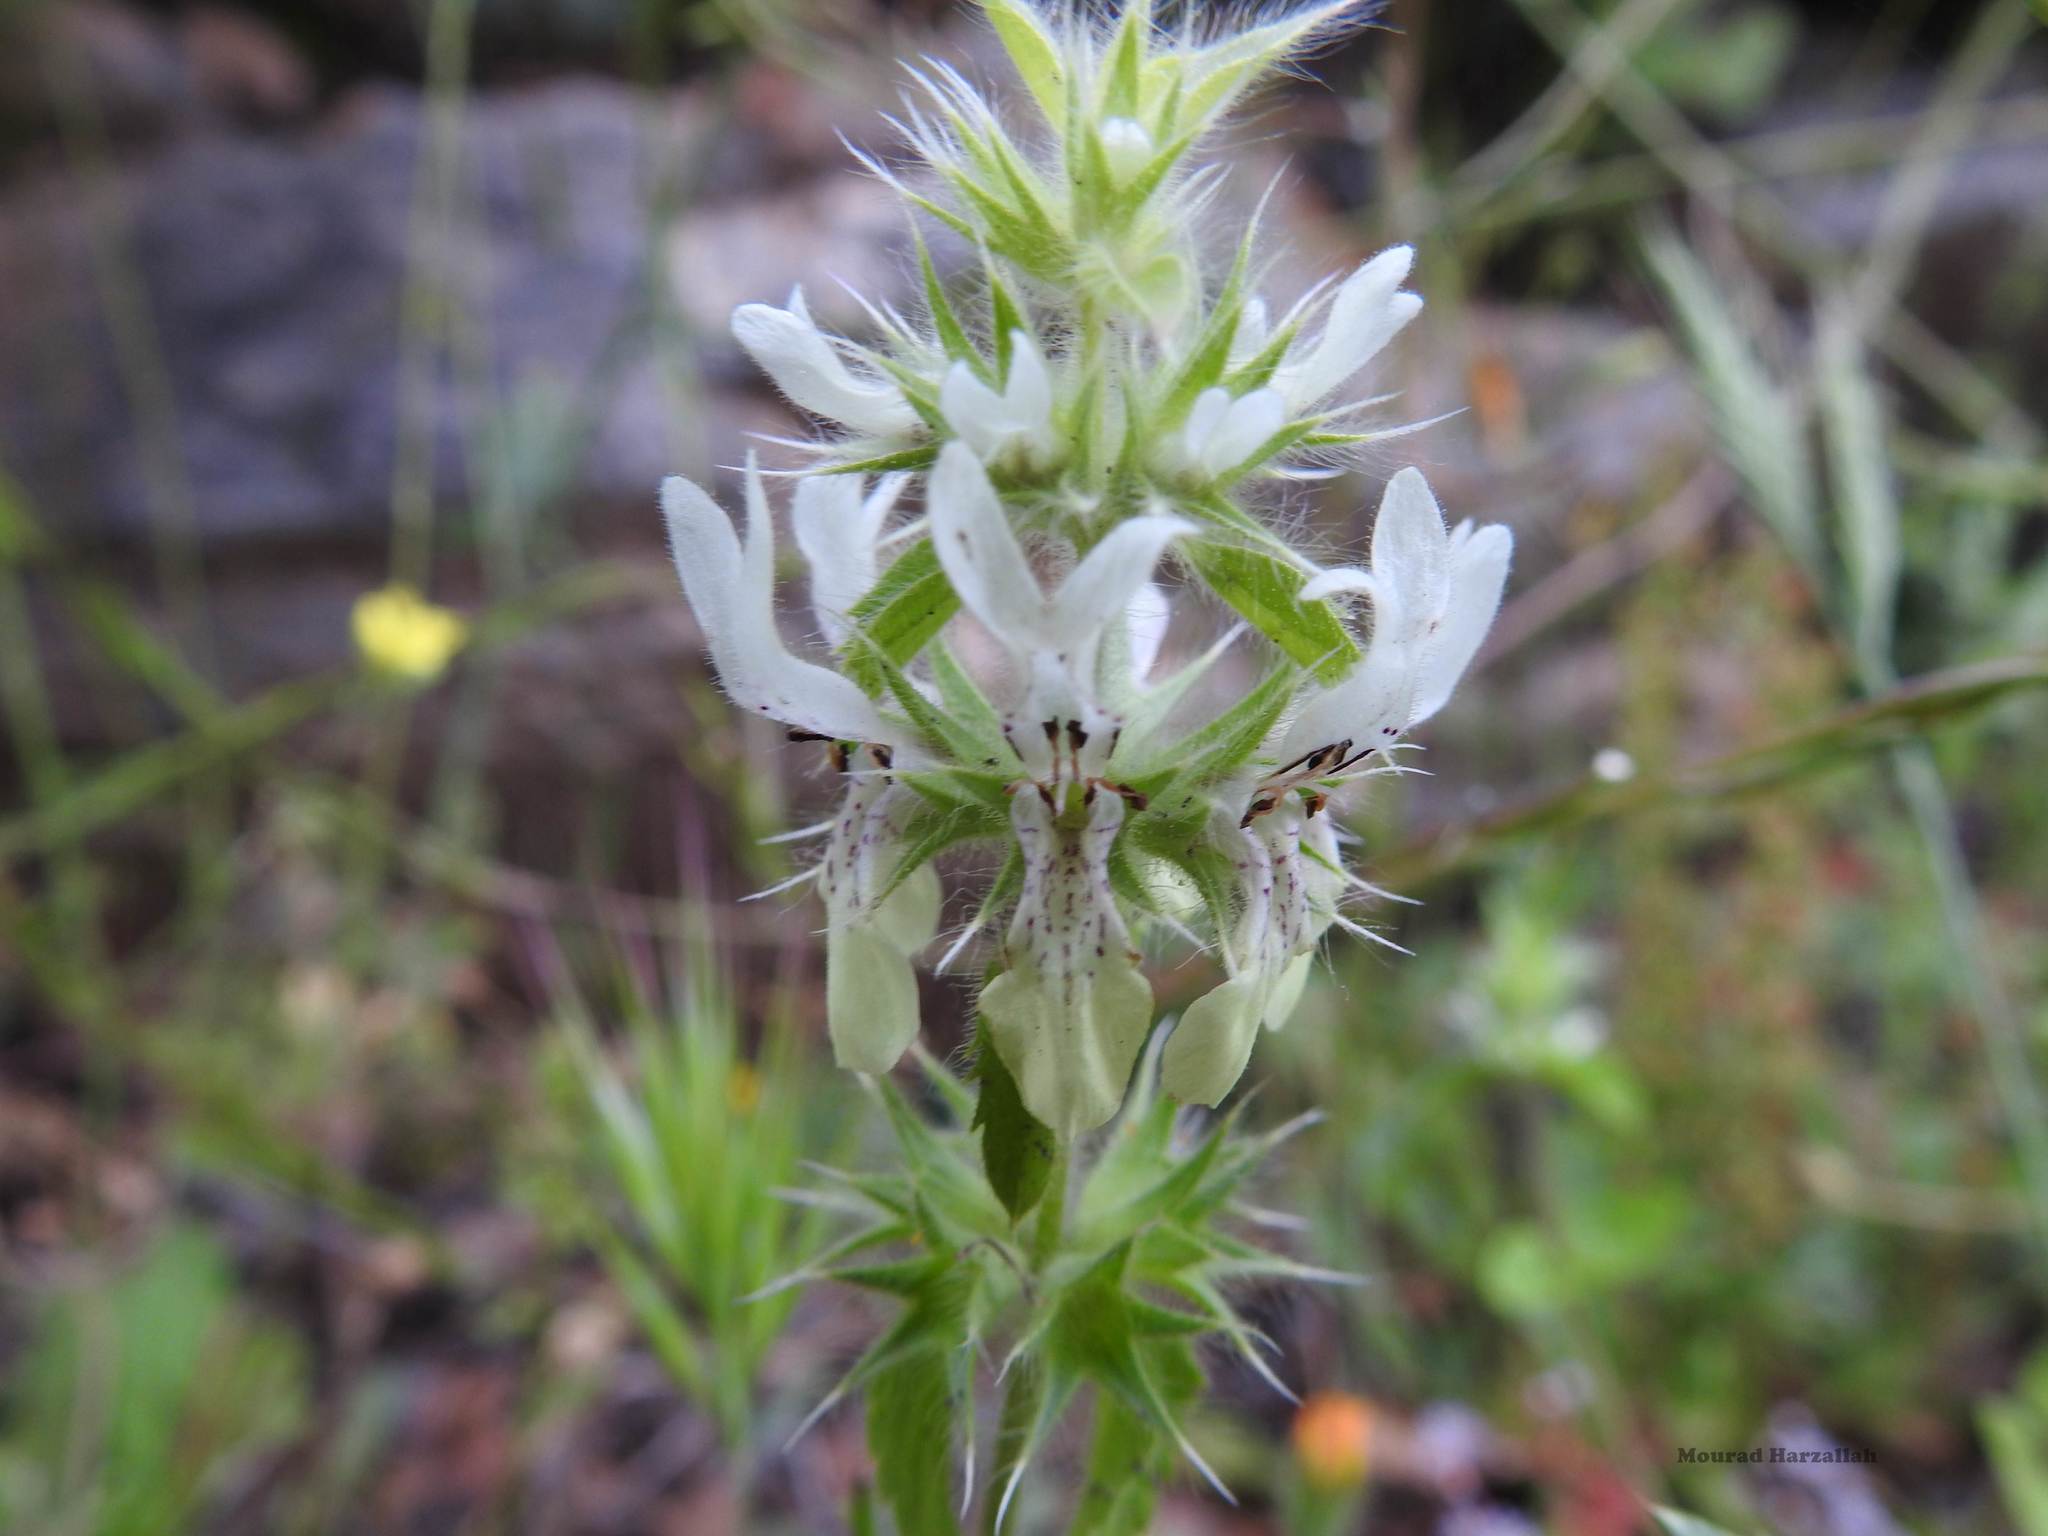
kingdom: Plantae
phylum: Tracheophyta
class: Magnoliopsida
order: Lamiales
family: Lamiaceae
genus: Stachys
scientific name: Stachys ocymastrum
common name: Italian hedgenettle
